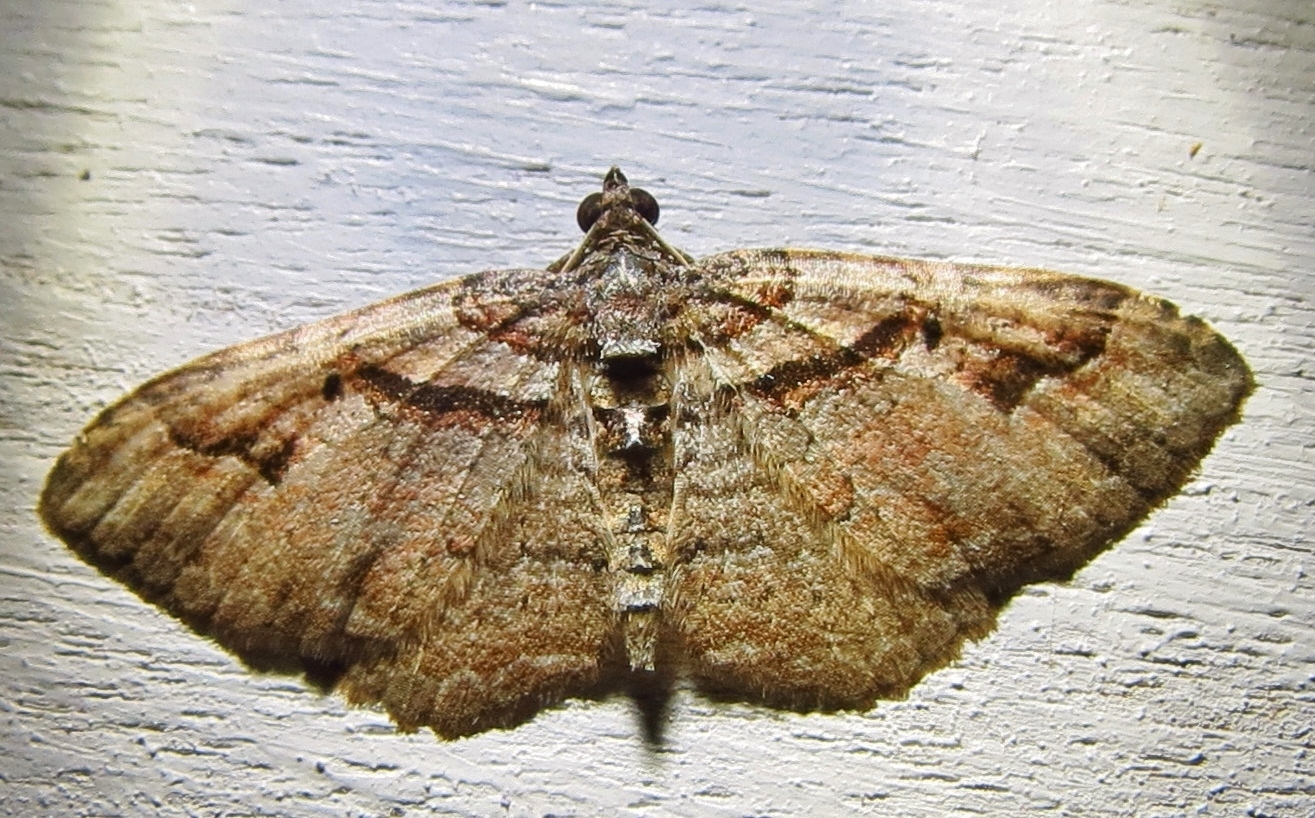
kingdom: Animalia
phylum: Arthropoda
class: Insecta
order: Lepidoptera
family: Geometridae
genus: Costaconvexa
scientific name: Costaconvexa centrostrigaria
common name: Bent-line carpet
